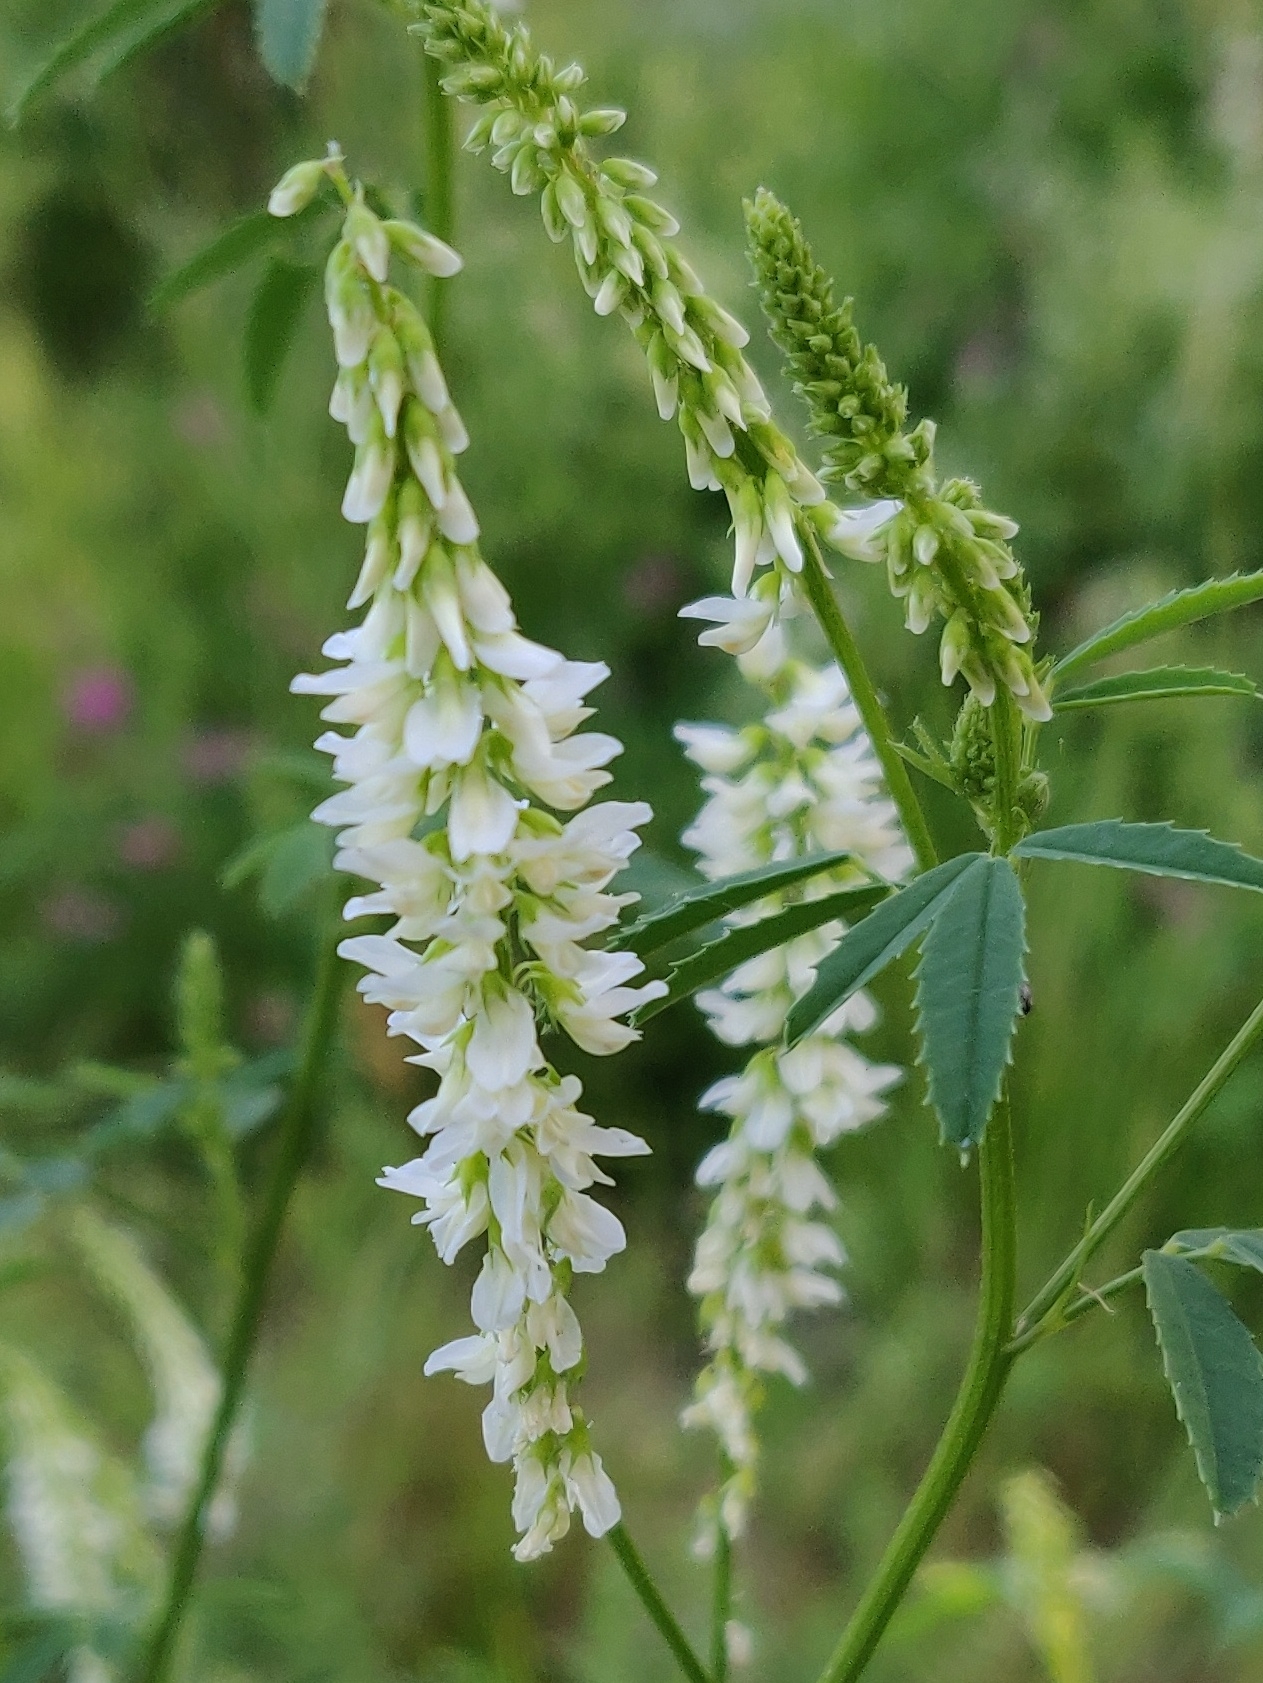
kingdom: Plantae
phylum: Tracheophyta
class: Magnoliopsida
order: Fabales
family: Fabaceae
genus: Melilotus
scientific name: Melilotus albus
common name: White melilot
